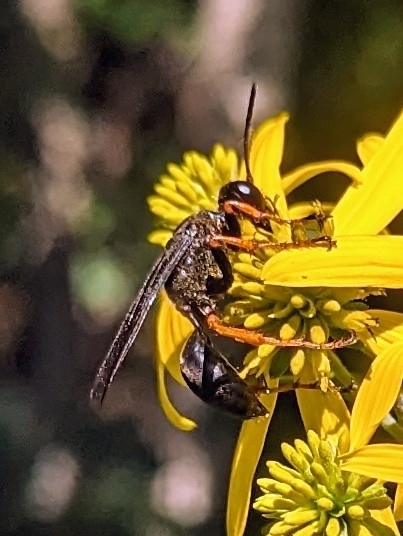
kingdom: Animalia
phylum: Arthropoda
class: Insecta
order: Hymenoptera
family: Sphecidae
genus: Sphex
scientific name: Sphex nudus
